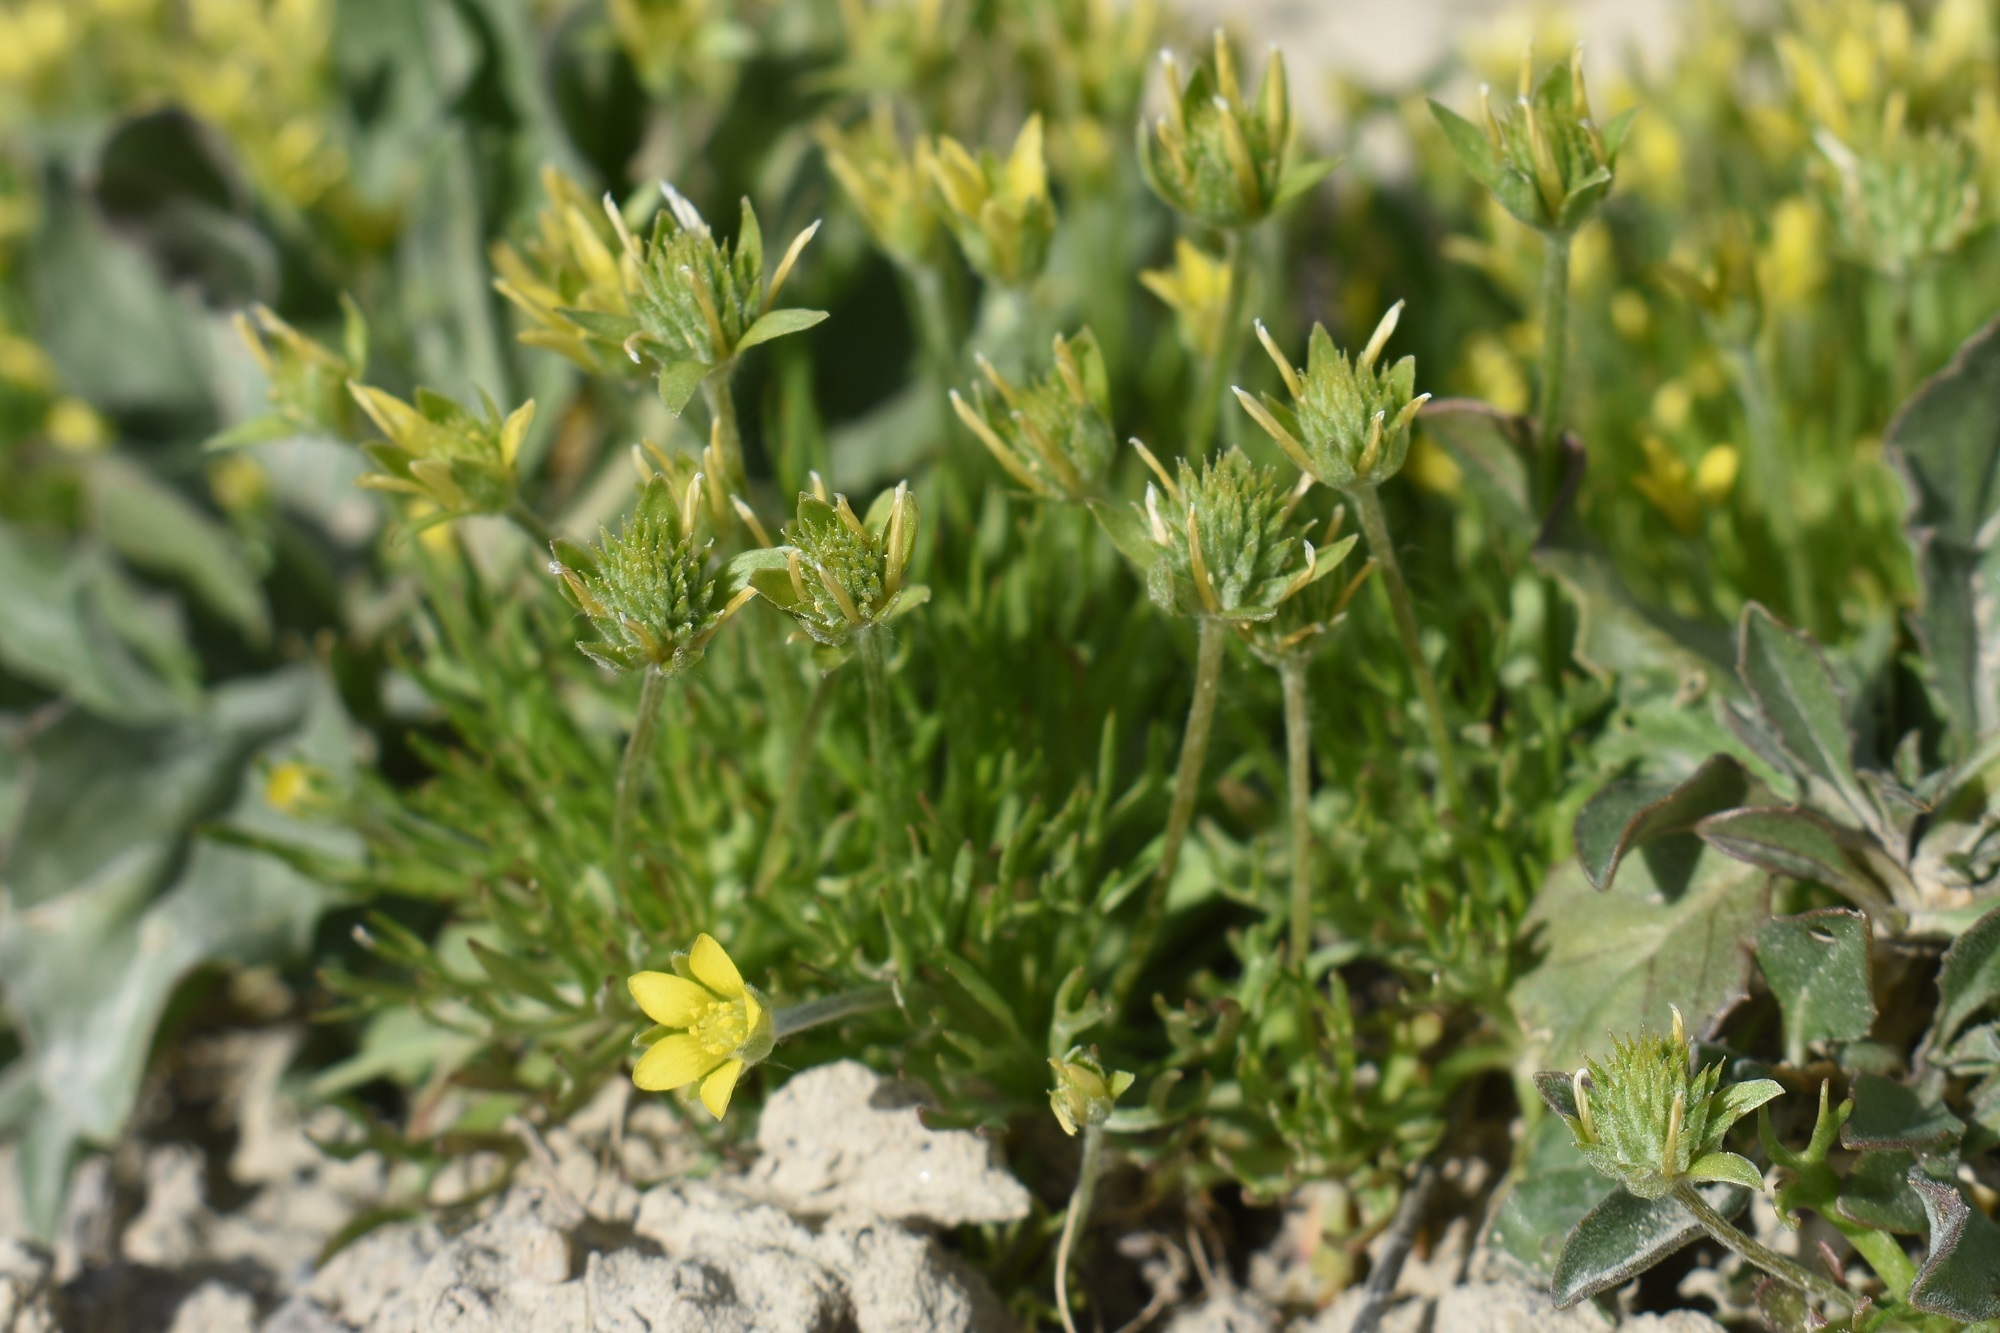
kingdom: Plantae
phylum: Tracheophyta
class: Magnoliopsida
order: Ranunculales
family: Ranunculaceae
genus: Ceratocephala
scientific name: Ceratocephala orthoceras
